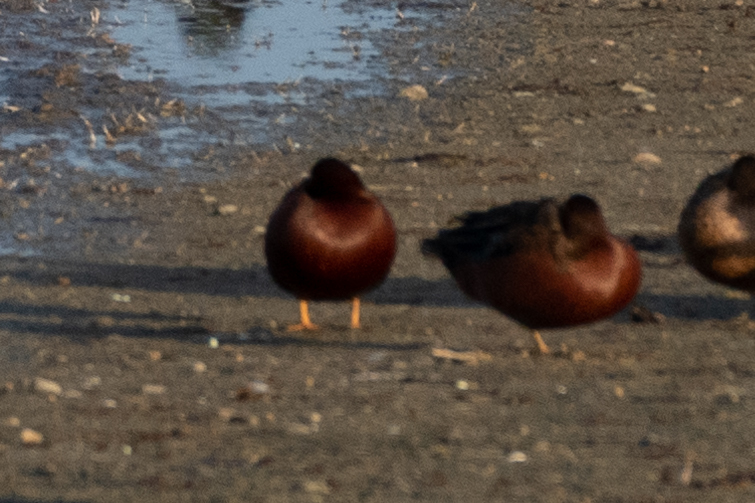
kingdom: Animalia
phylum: Chordata
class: Aves
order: Anseriformes
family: Anatidae
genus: Spatula
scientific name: Spatula cyanoptera
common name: Cinnamon teal
